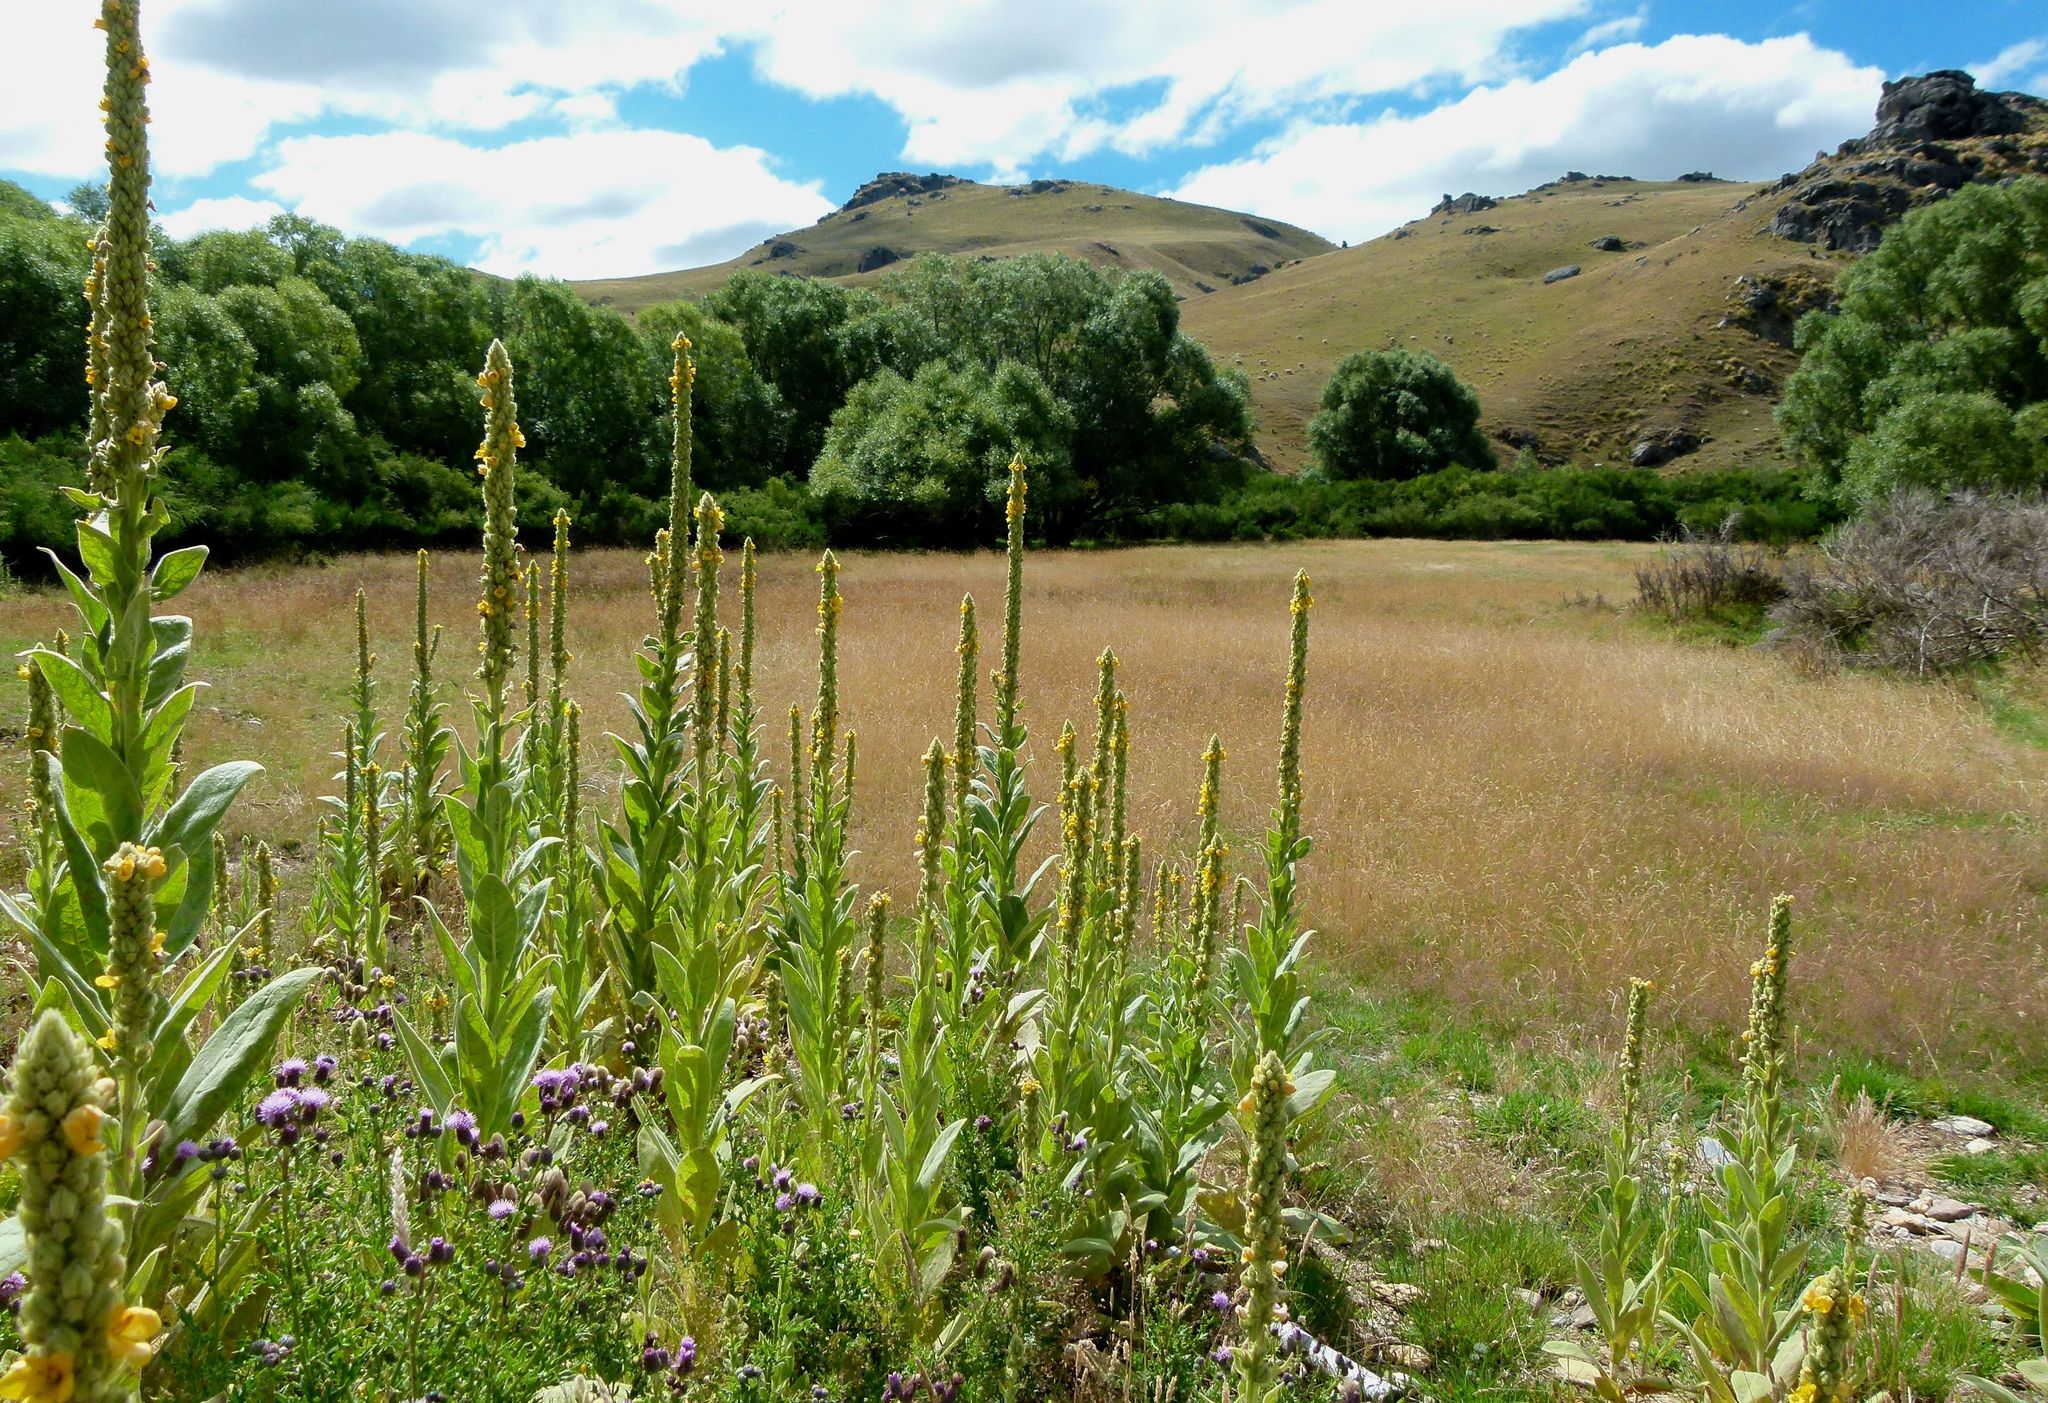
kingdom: Plantae
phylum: Tracheophyta
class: Magnoliopsida
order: Lamiales
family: Scrophulariaceae
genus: Verbascum
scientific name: Verbascum thapsus
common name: Common mullein
